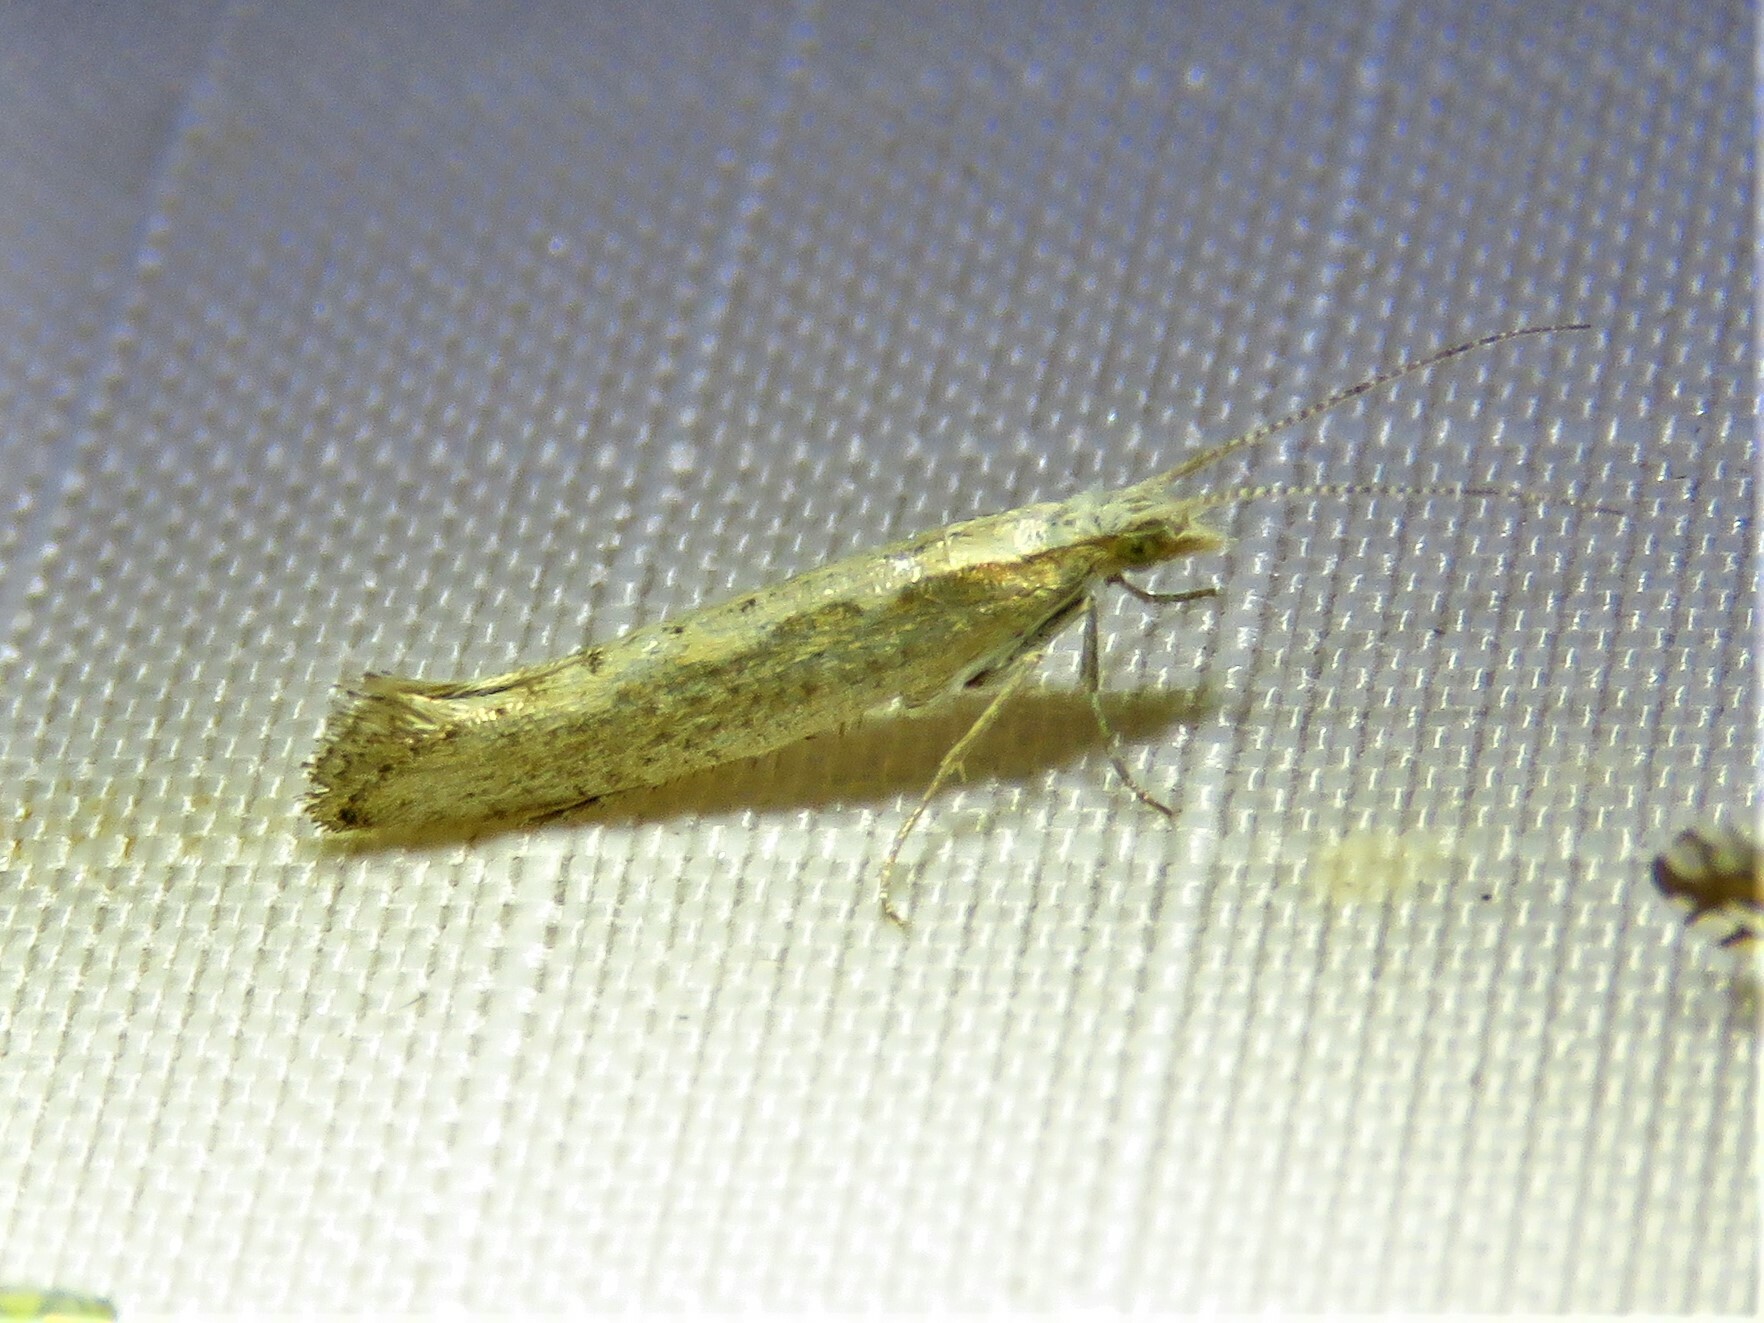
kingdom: Animalia
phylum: Arthropoda
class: Insecta
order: Lepidoptera
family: Plutellidae
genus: Plutella
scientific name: Plutella xylostella
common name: Diamond-back moth
